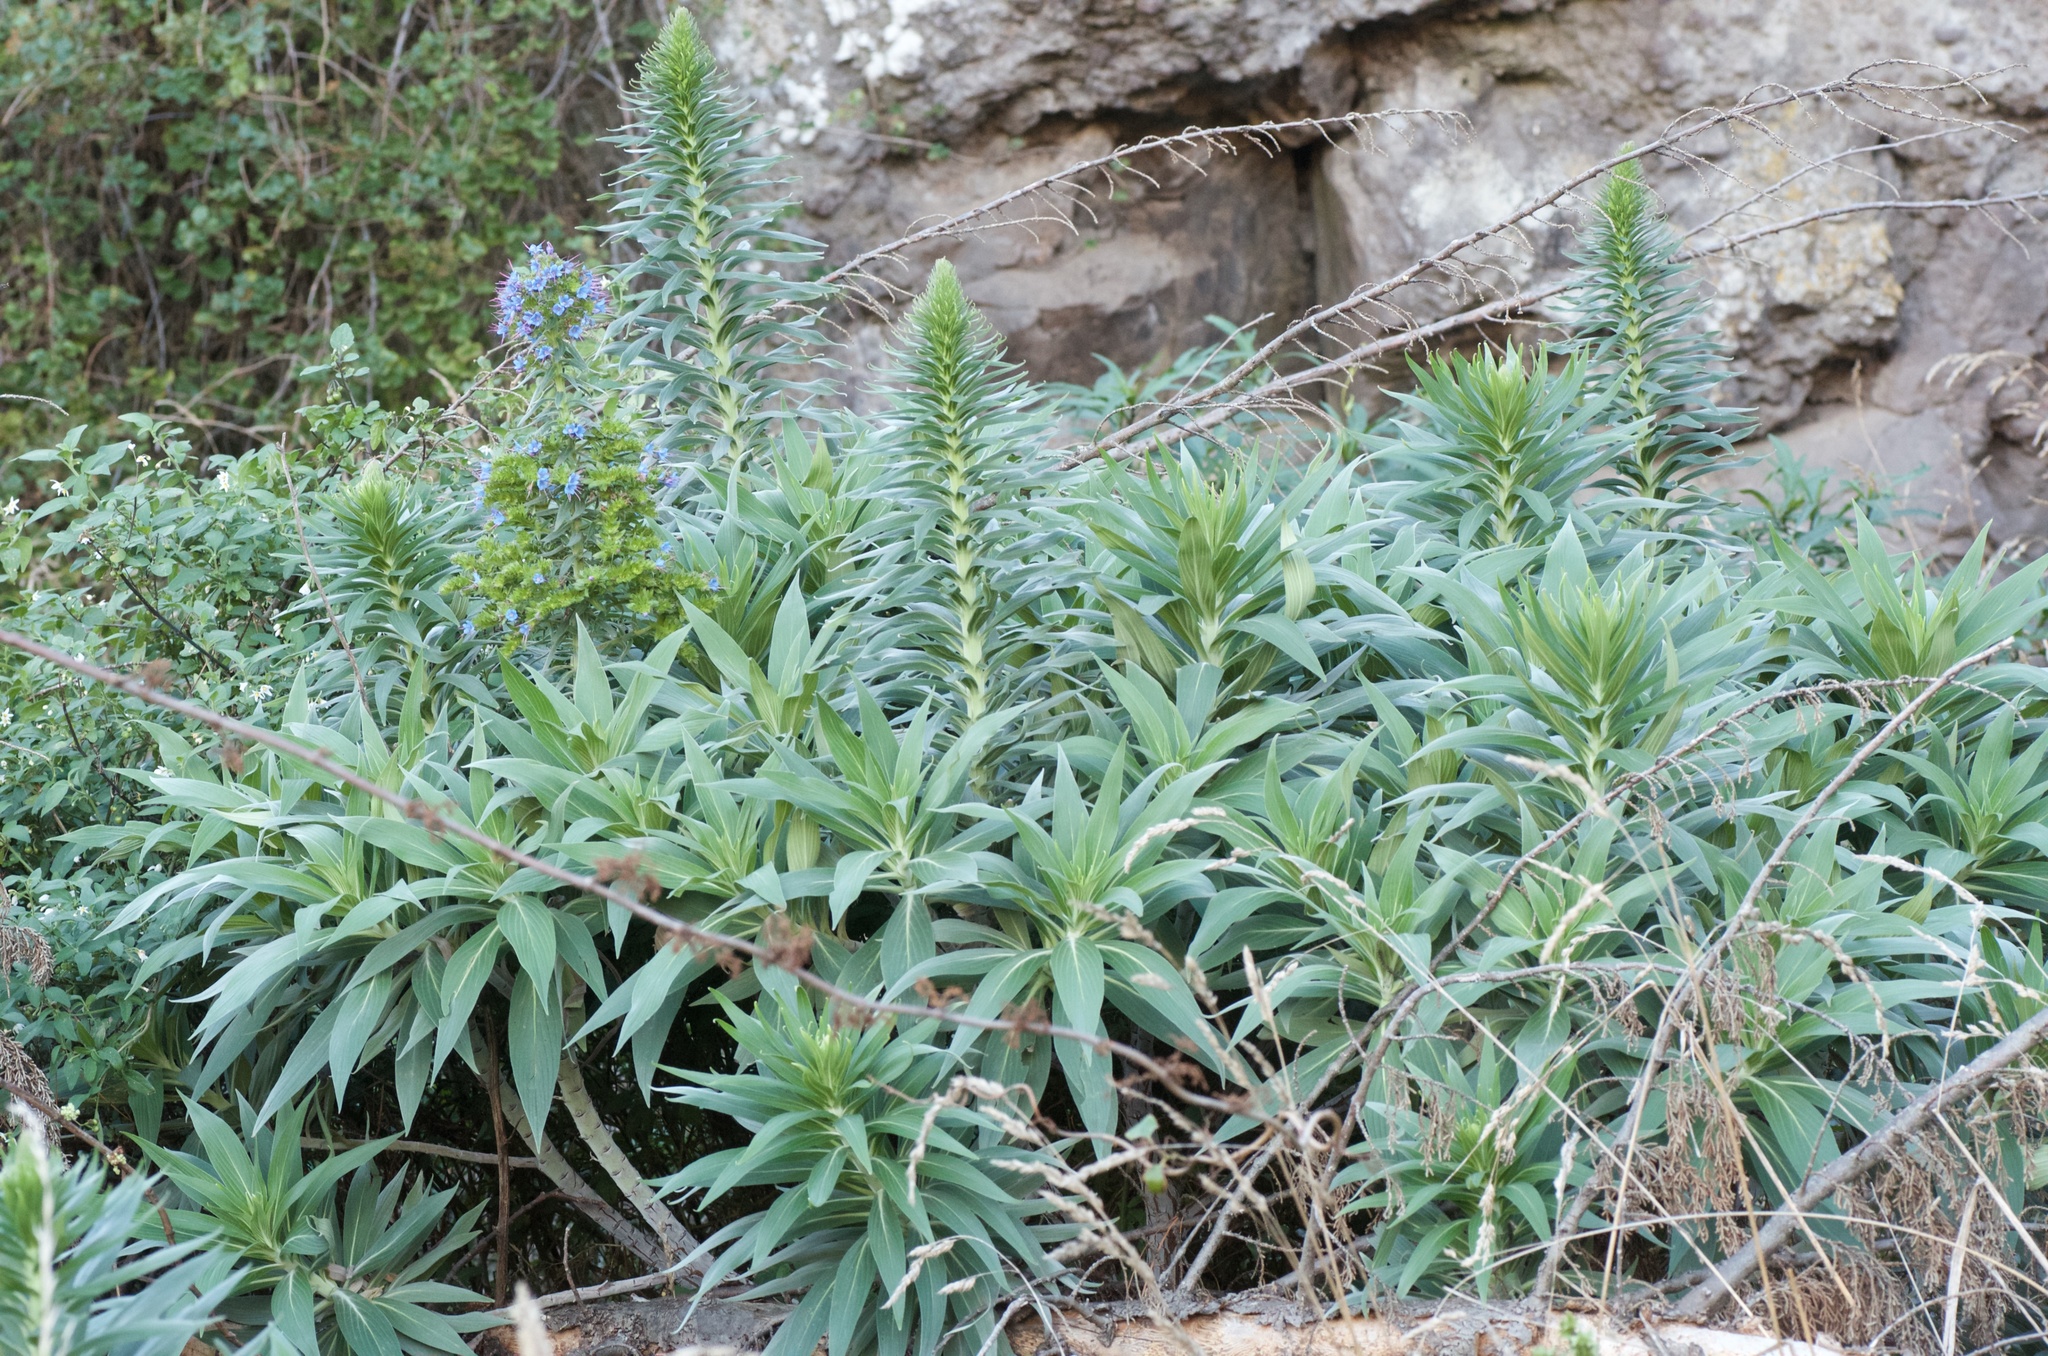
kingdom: Plantae
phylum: Tracheophyta
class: Magnoliopsida
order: Boraginales
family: Boraginaceae
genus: Echium
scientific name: Echium candicans
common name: Pride of madeira
